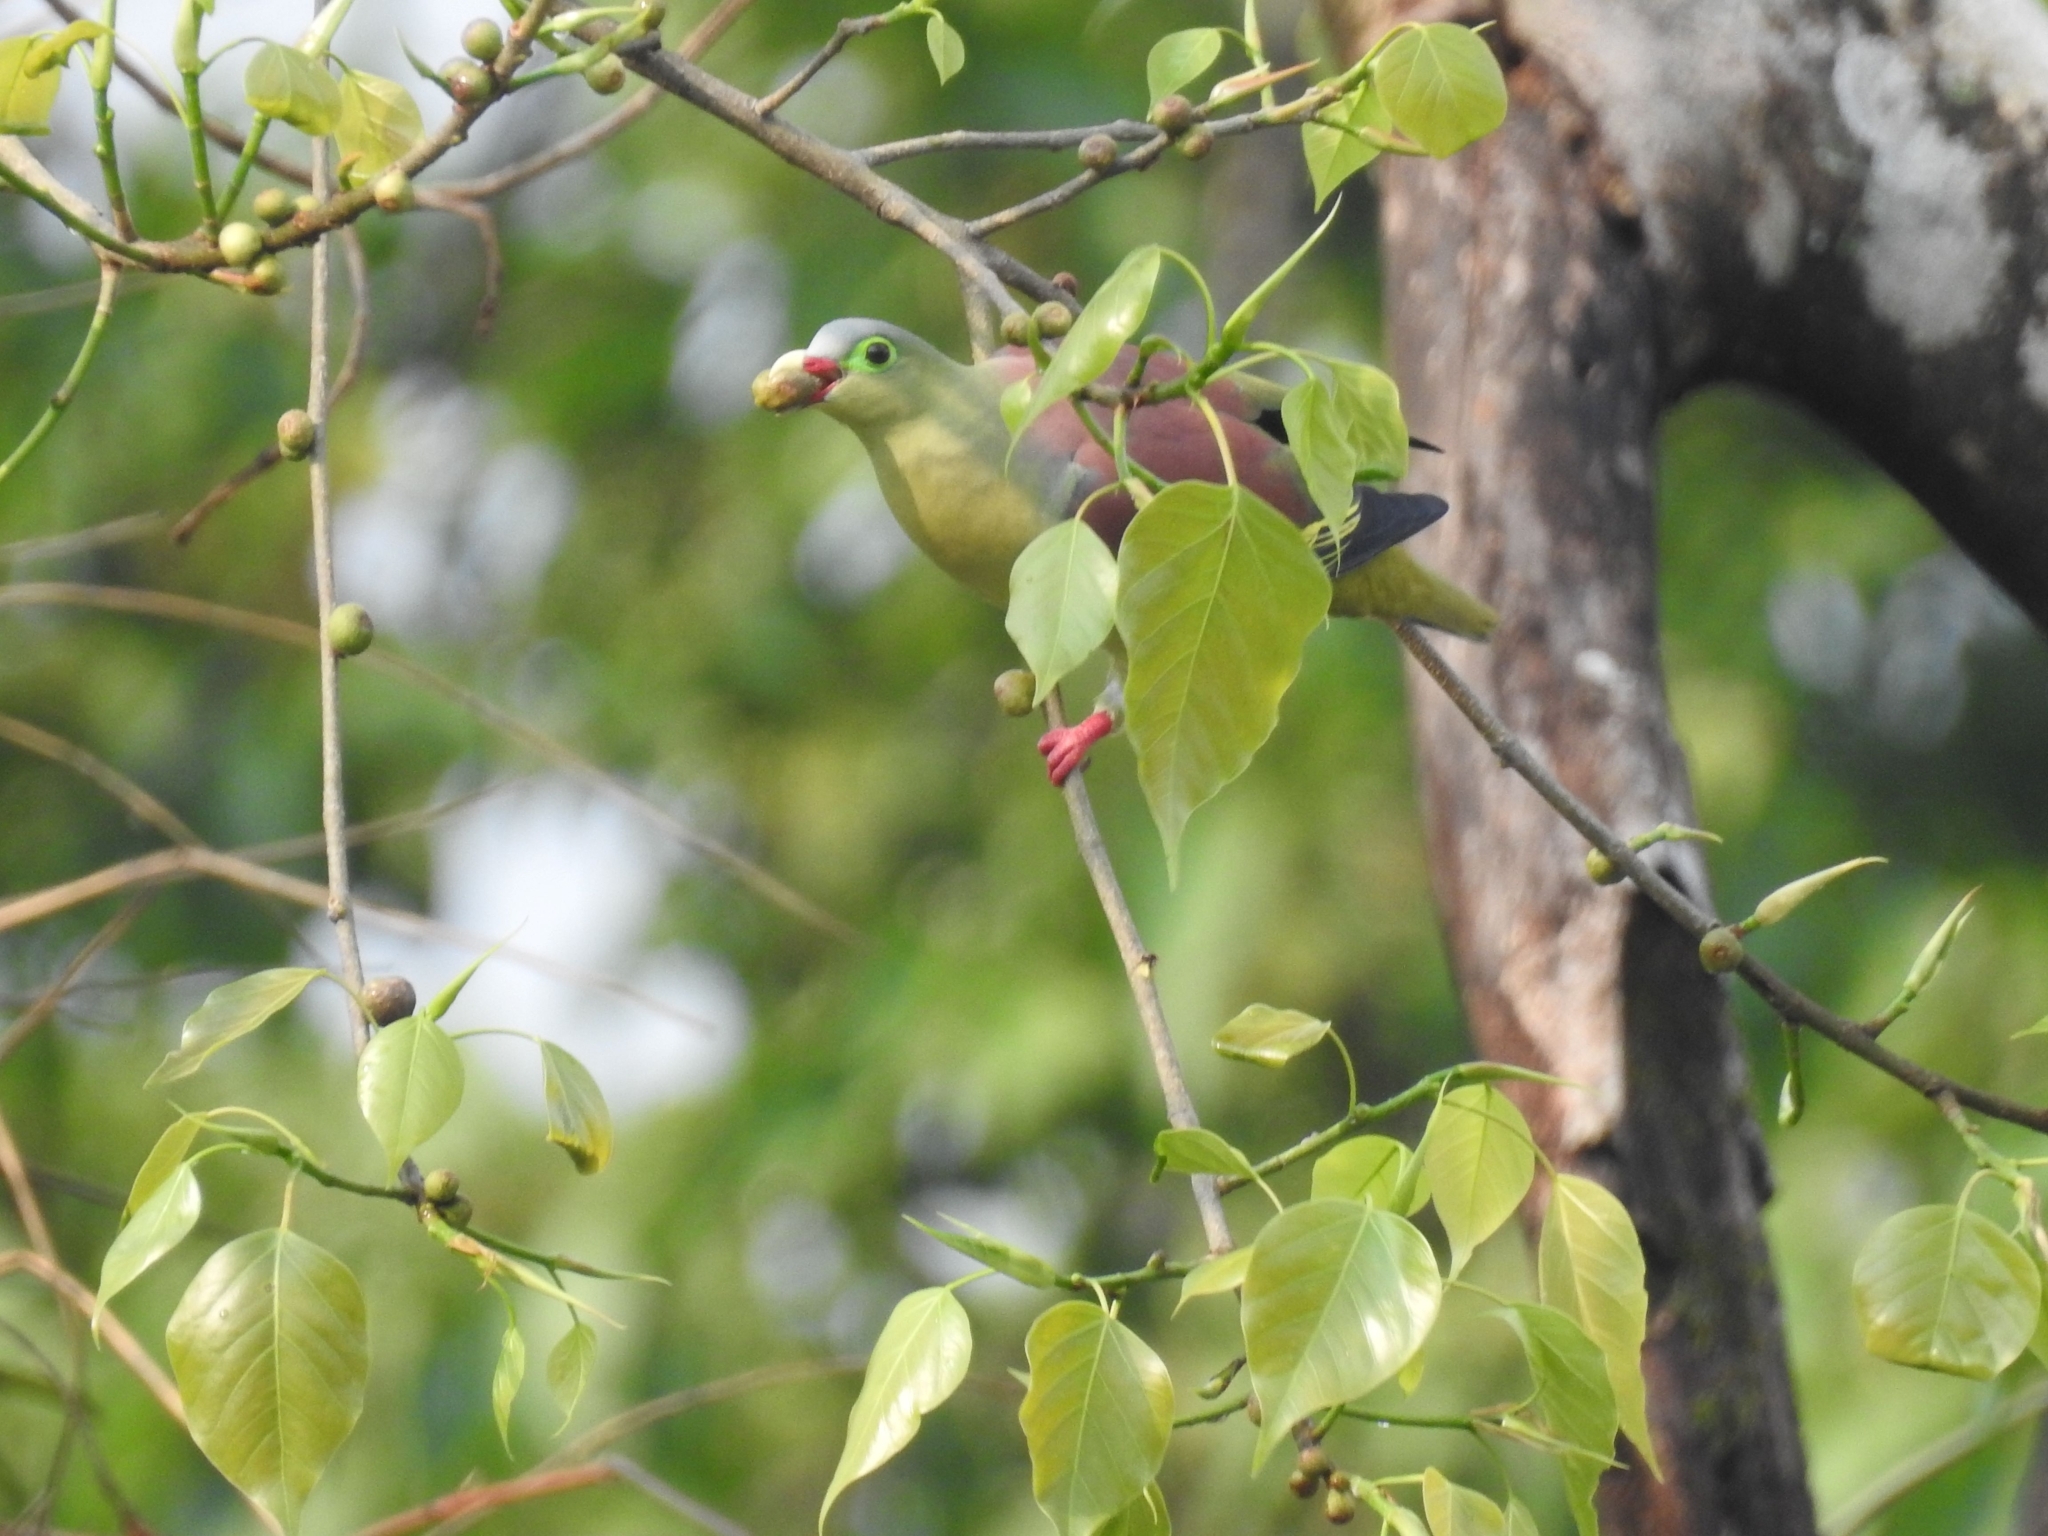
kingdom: Animalia
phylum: Chordata
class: Aves
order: Columbiformes
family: Columbidae
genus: Treron
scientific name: Treron curvirostra
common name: Thick-billed green pigeon
